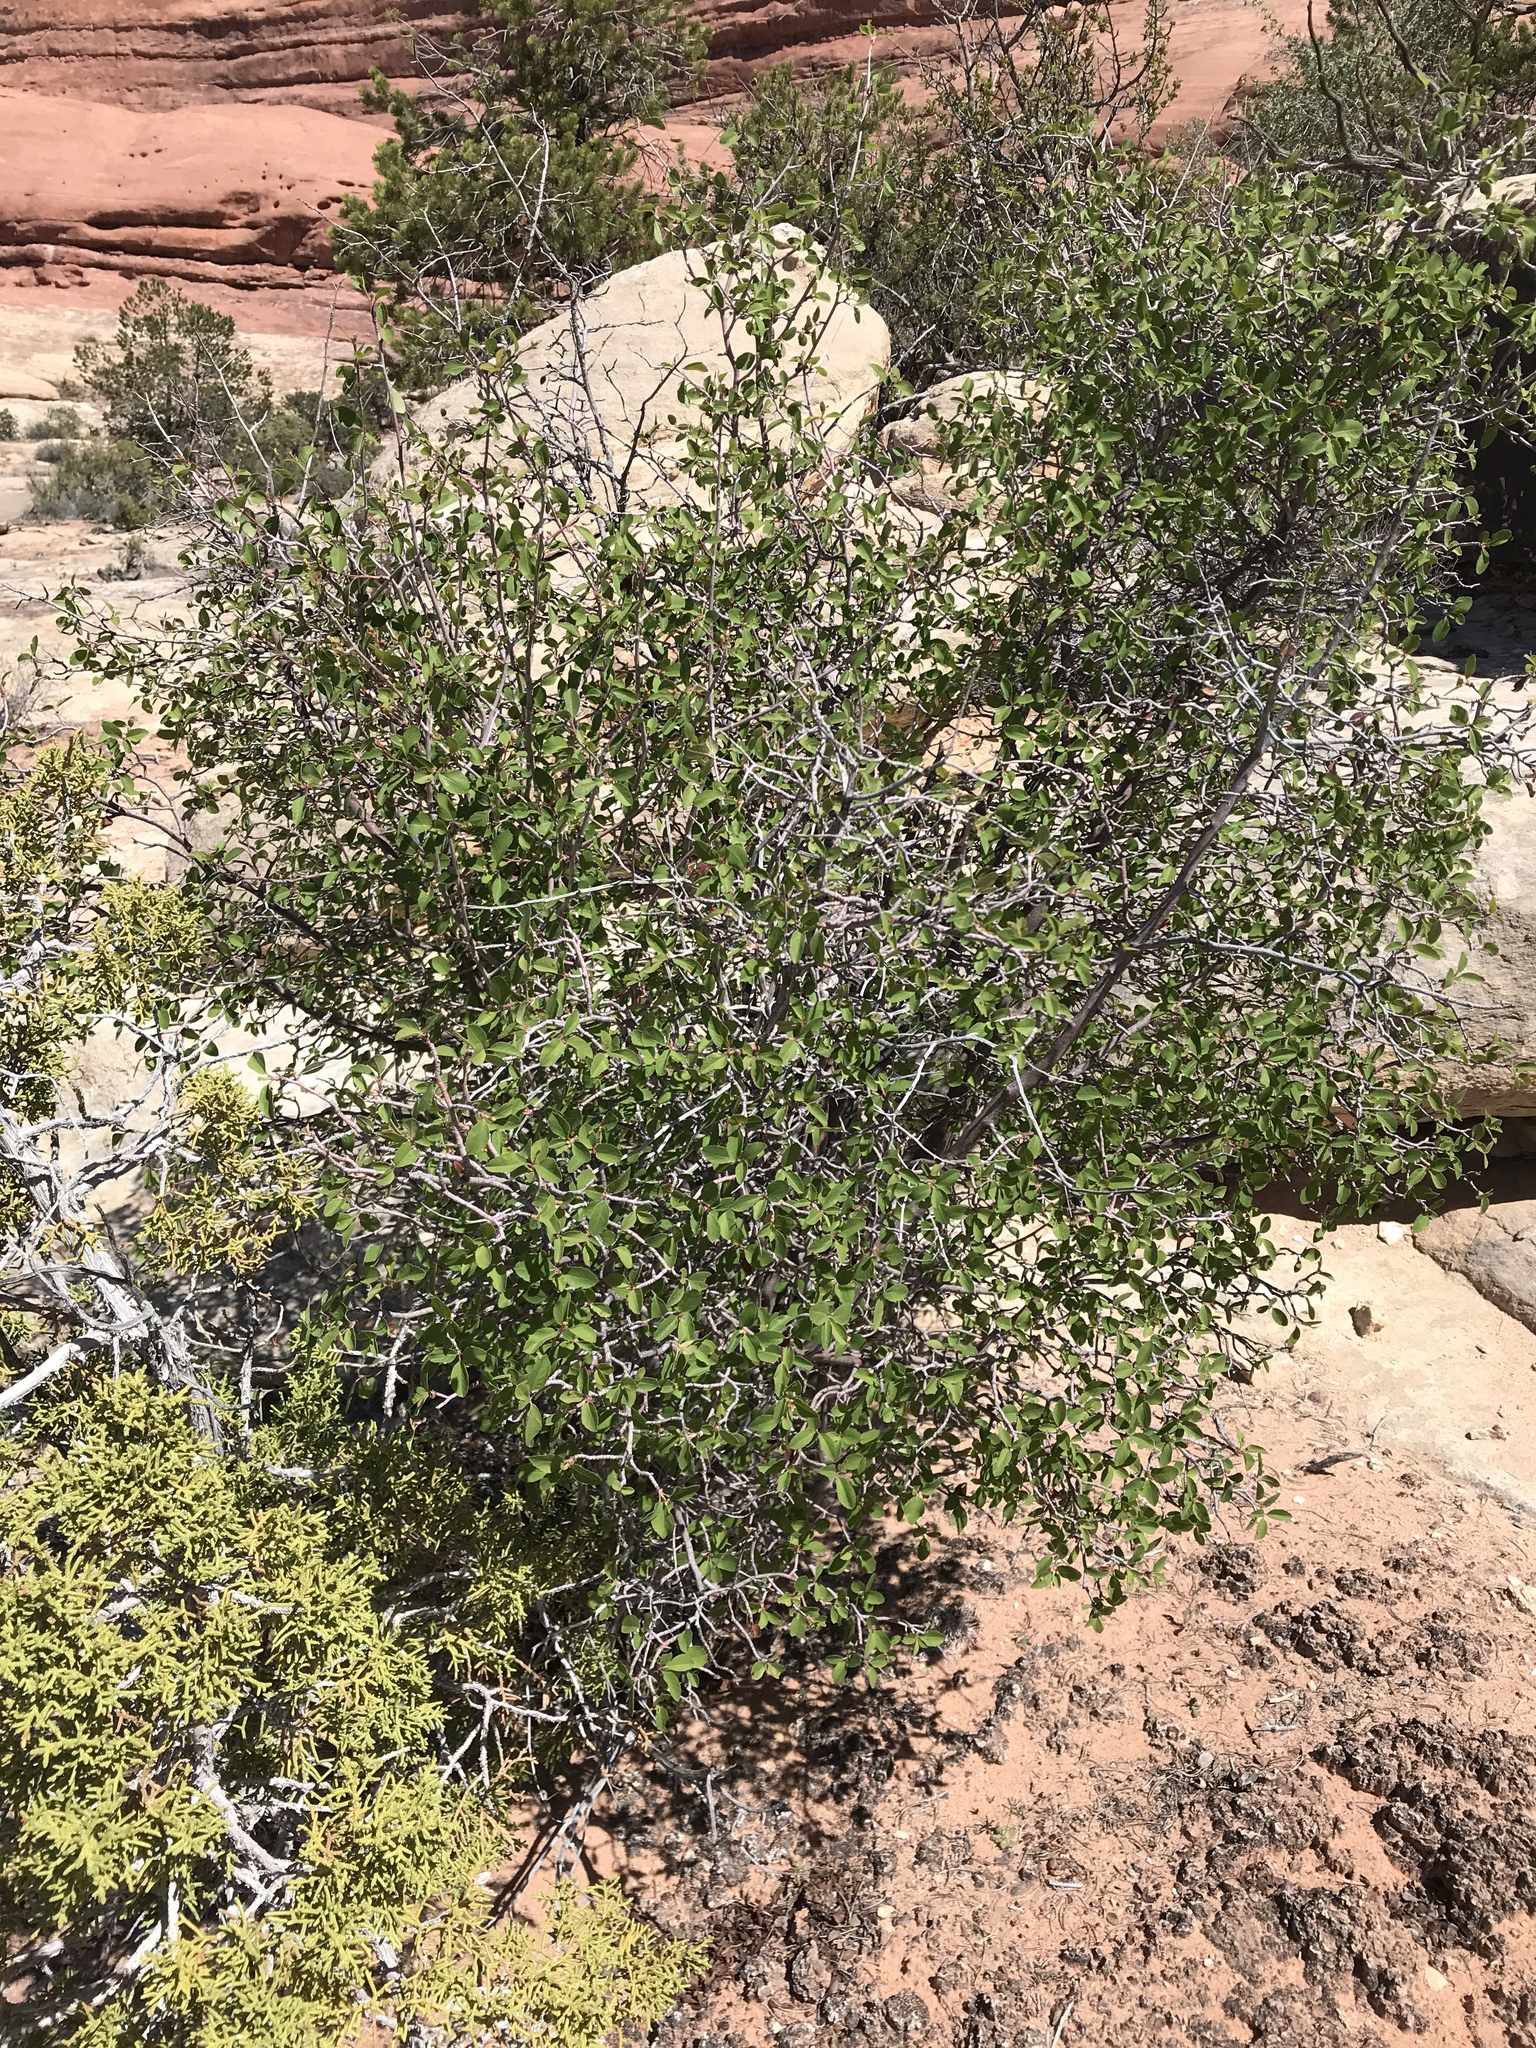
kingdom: Plantae
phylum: Tracheophyta
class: Magnoliopsida
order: Rosales
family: Rosaceae
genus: Amelanchier
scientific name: Amelanchier utahensis
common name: Utah serviceberry
